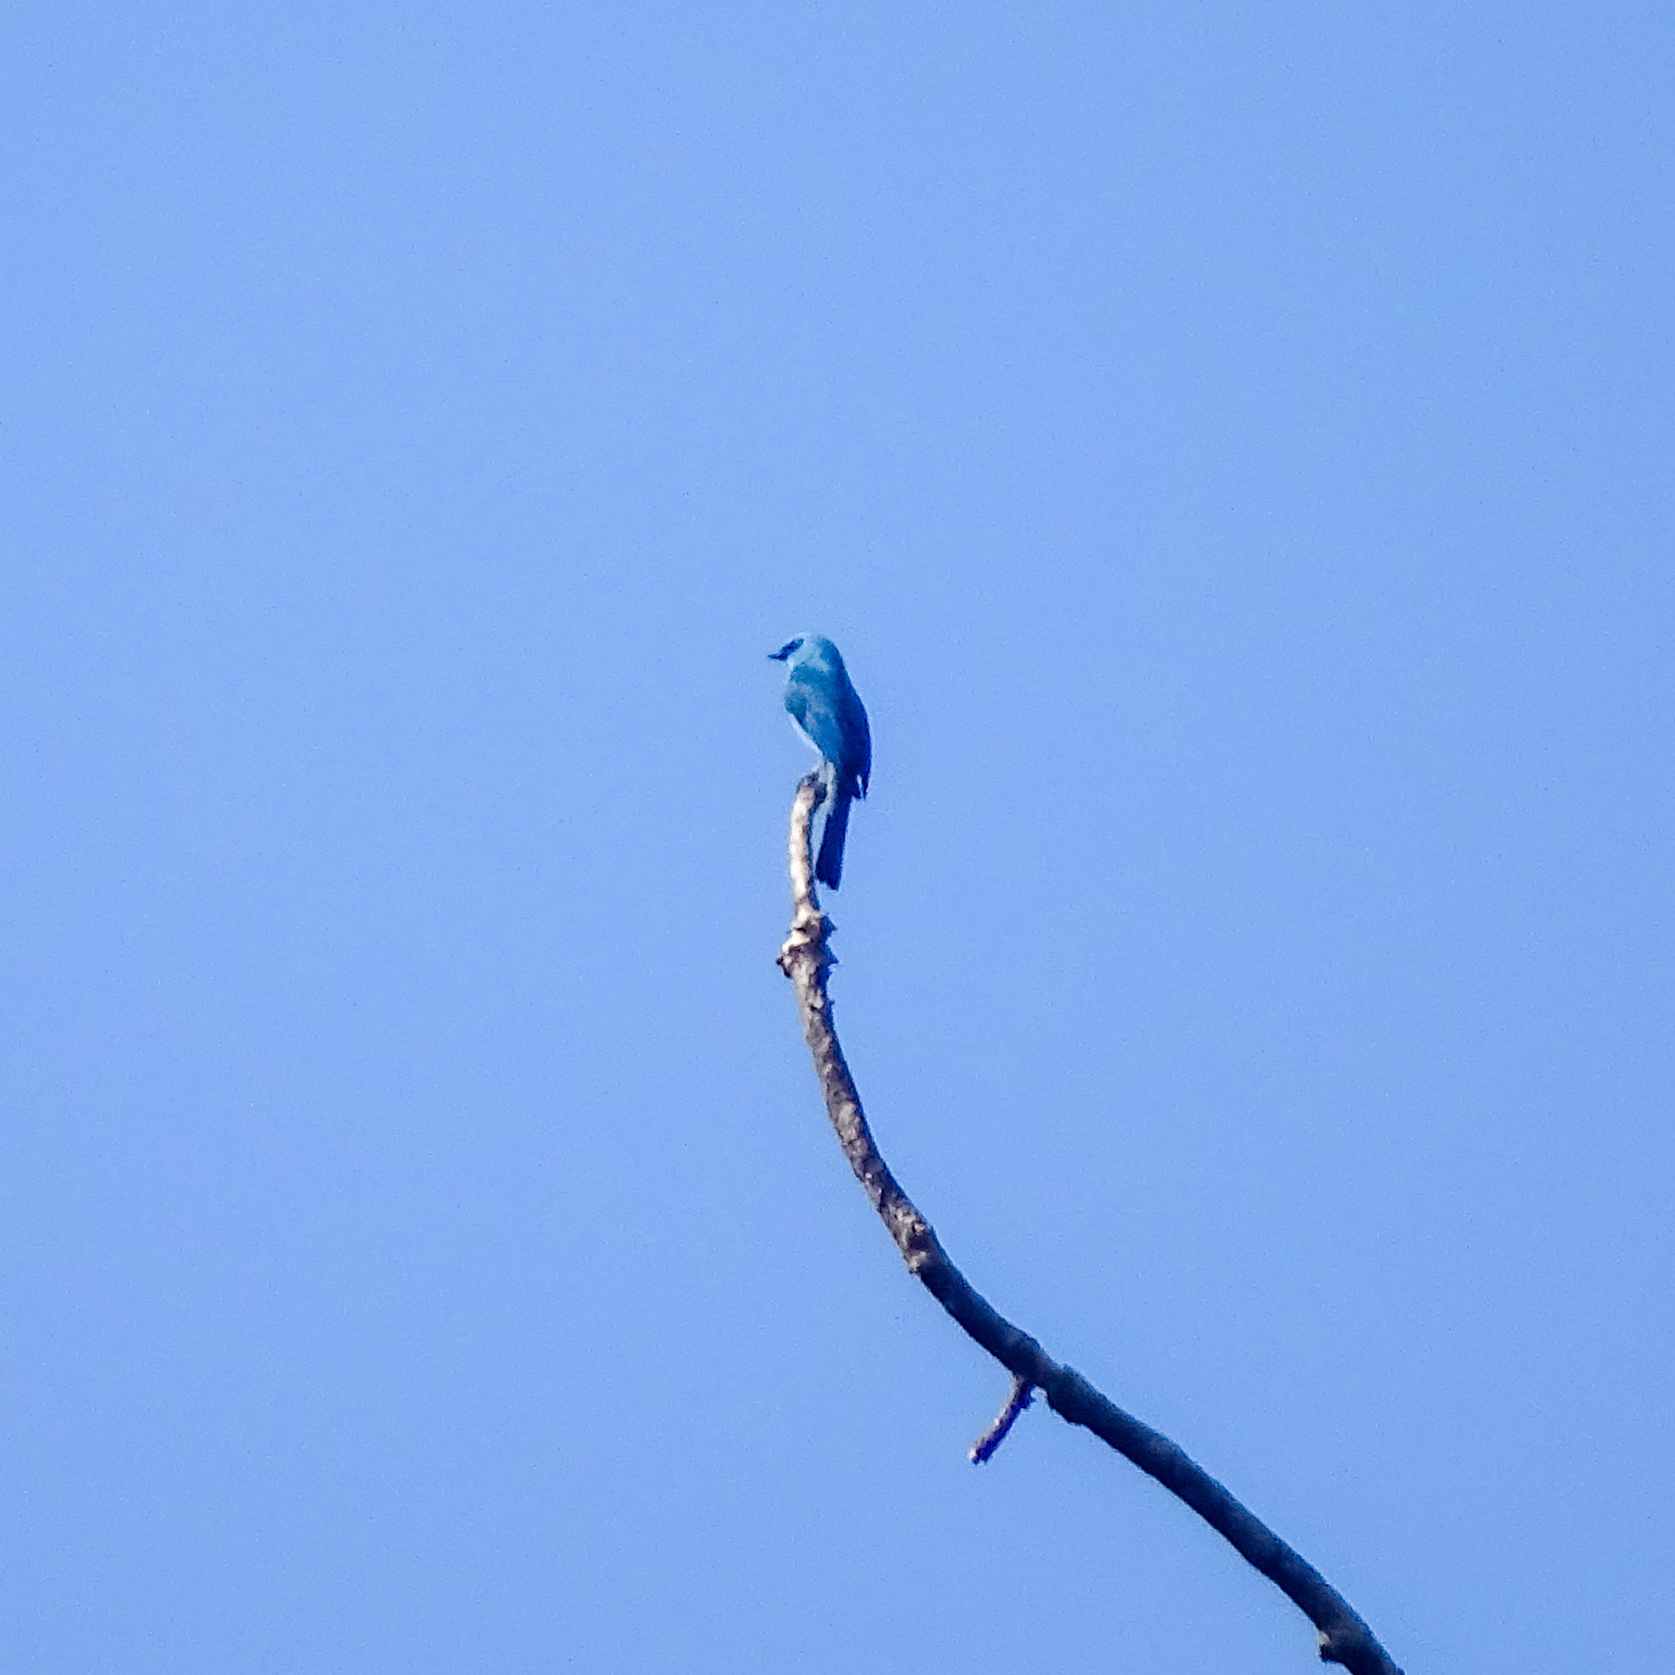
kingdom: Animalia
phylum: Chordata
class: Aves
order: Passeriformes
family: Muscicapidae
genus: Eumyias
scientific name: Eumyias thalassinus
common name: Verditer flycatcher
